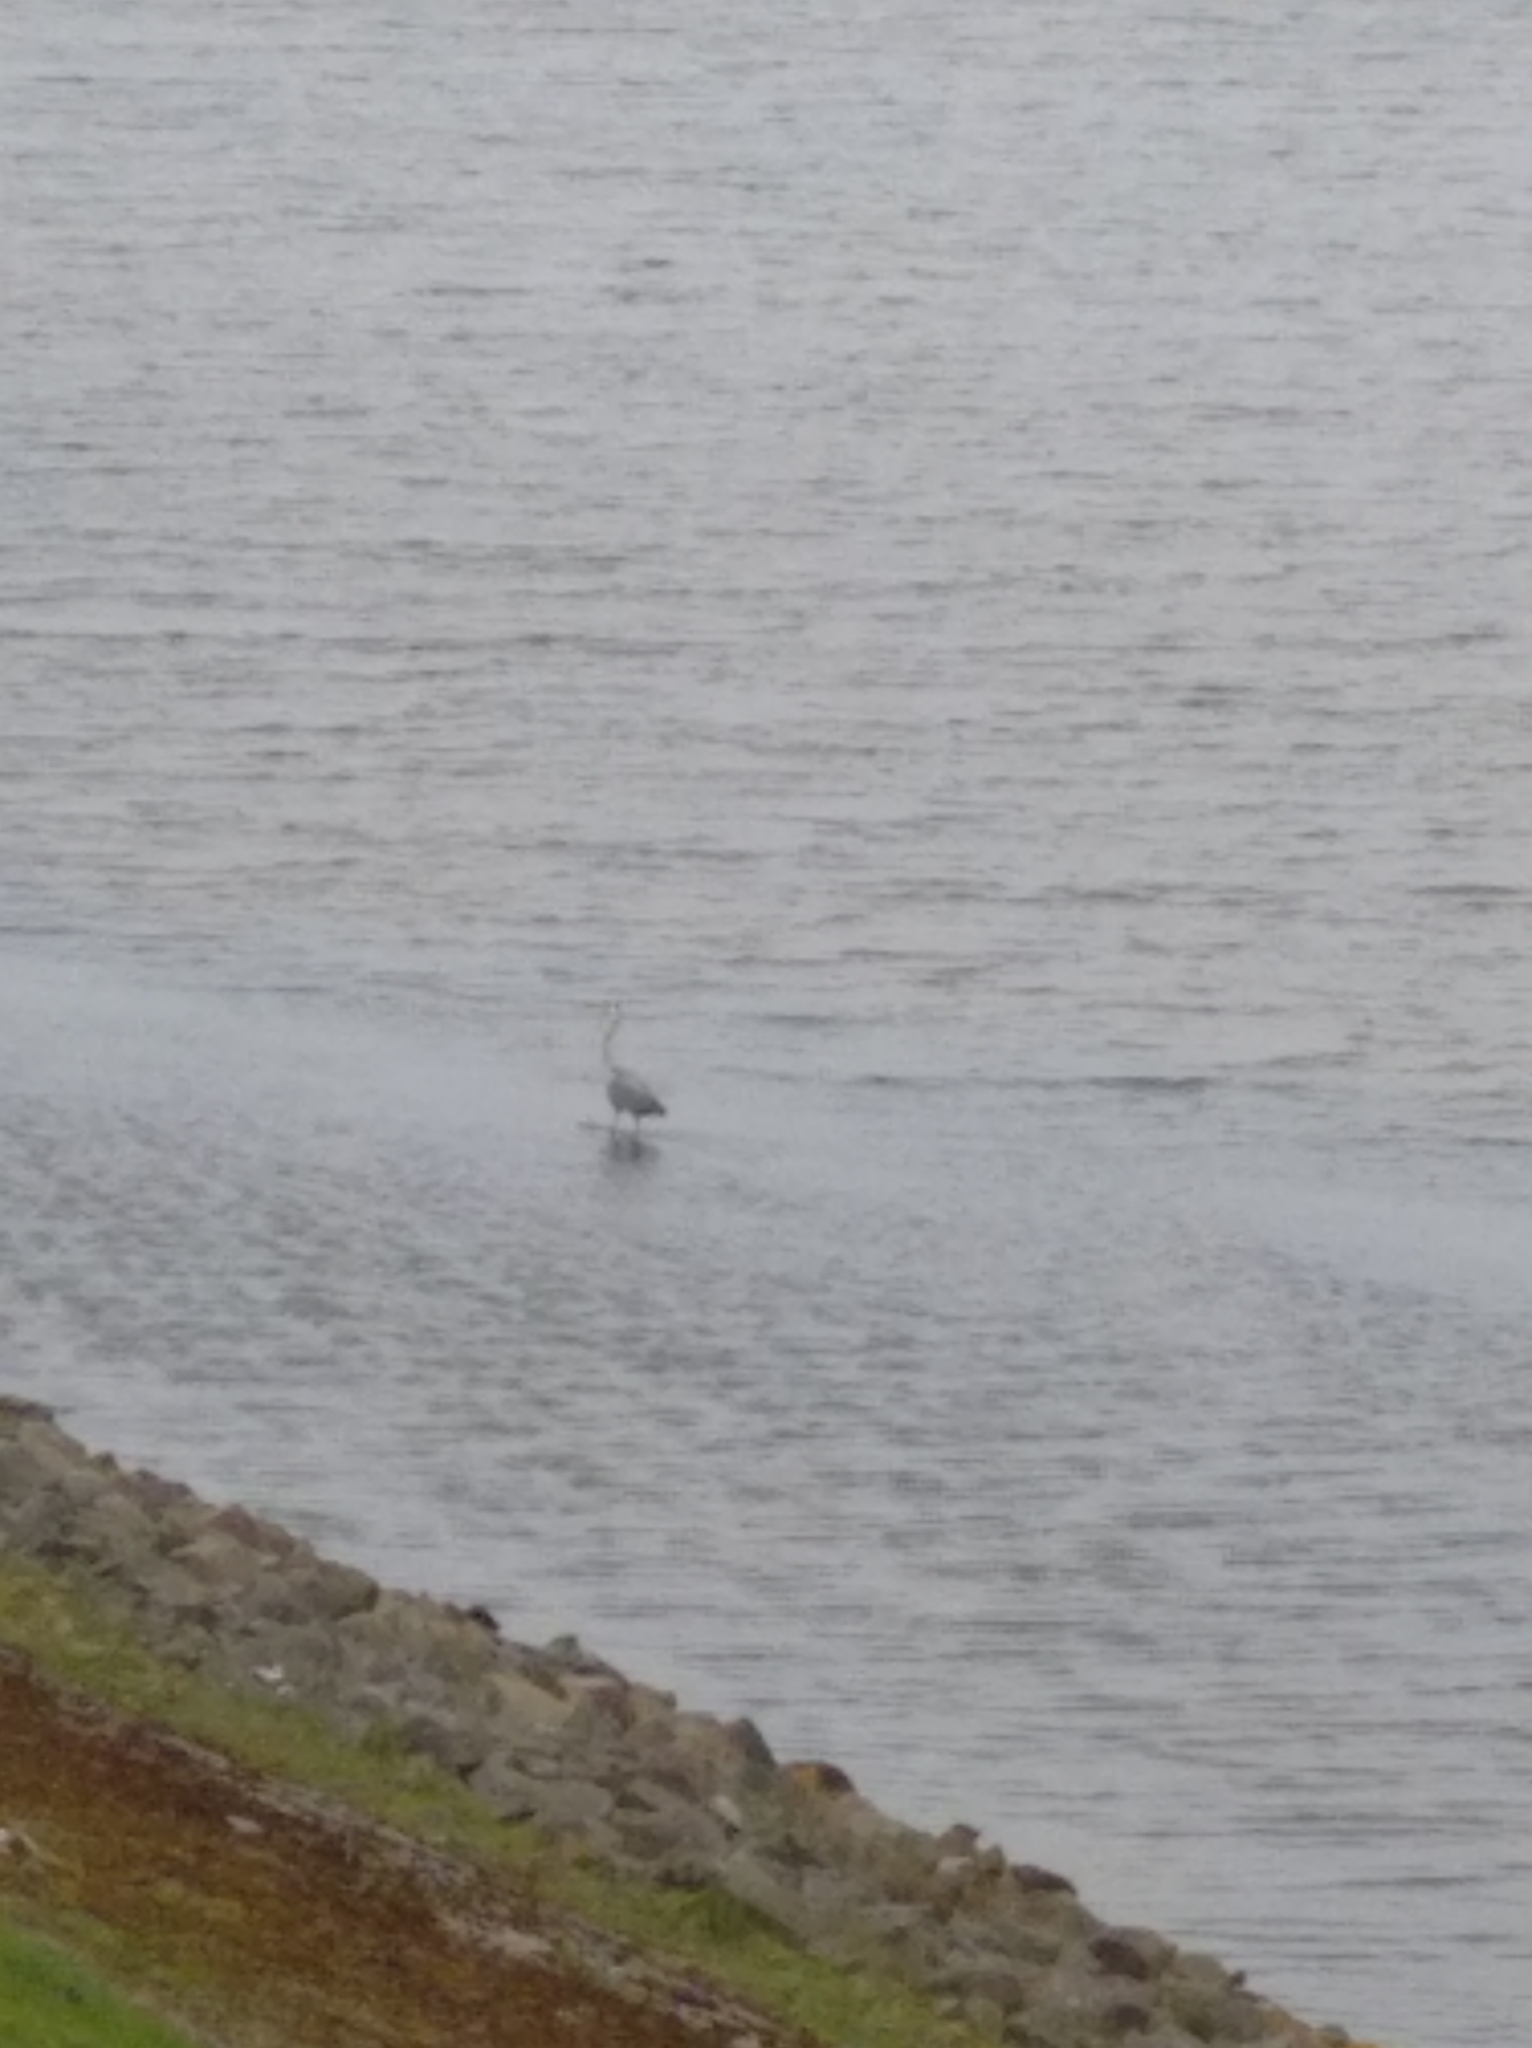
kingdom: Animalia
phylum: Chordata
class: Aves
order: Pelecaniformes
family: Ardeidae
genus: Ardea
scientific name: Ardea cinerea
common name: Grey heron
